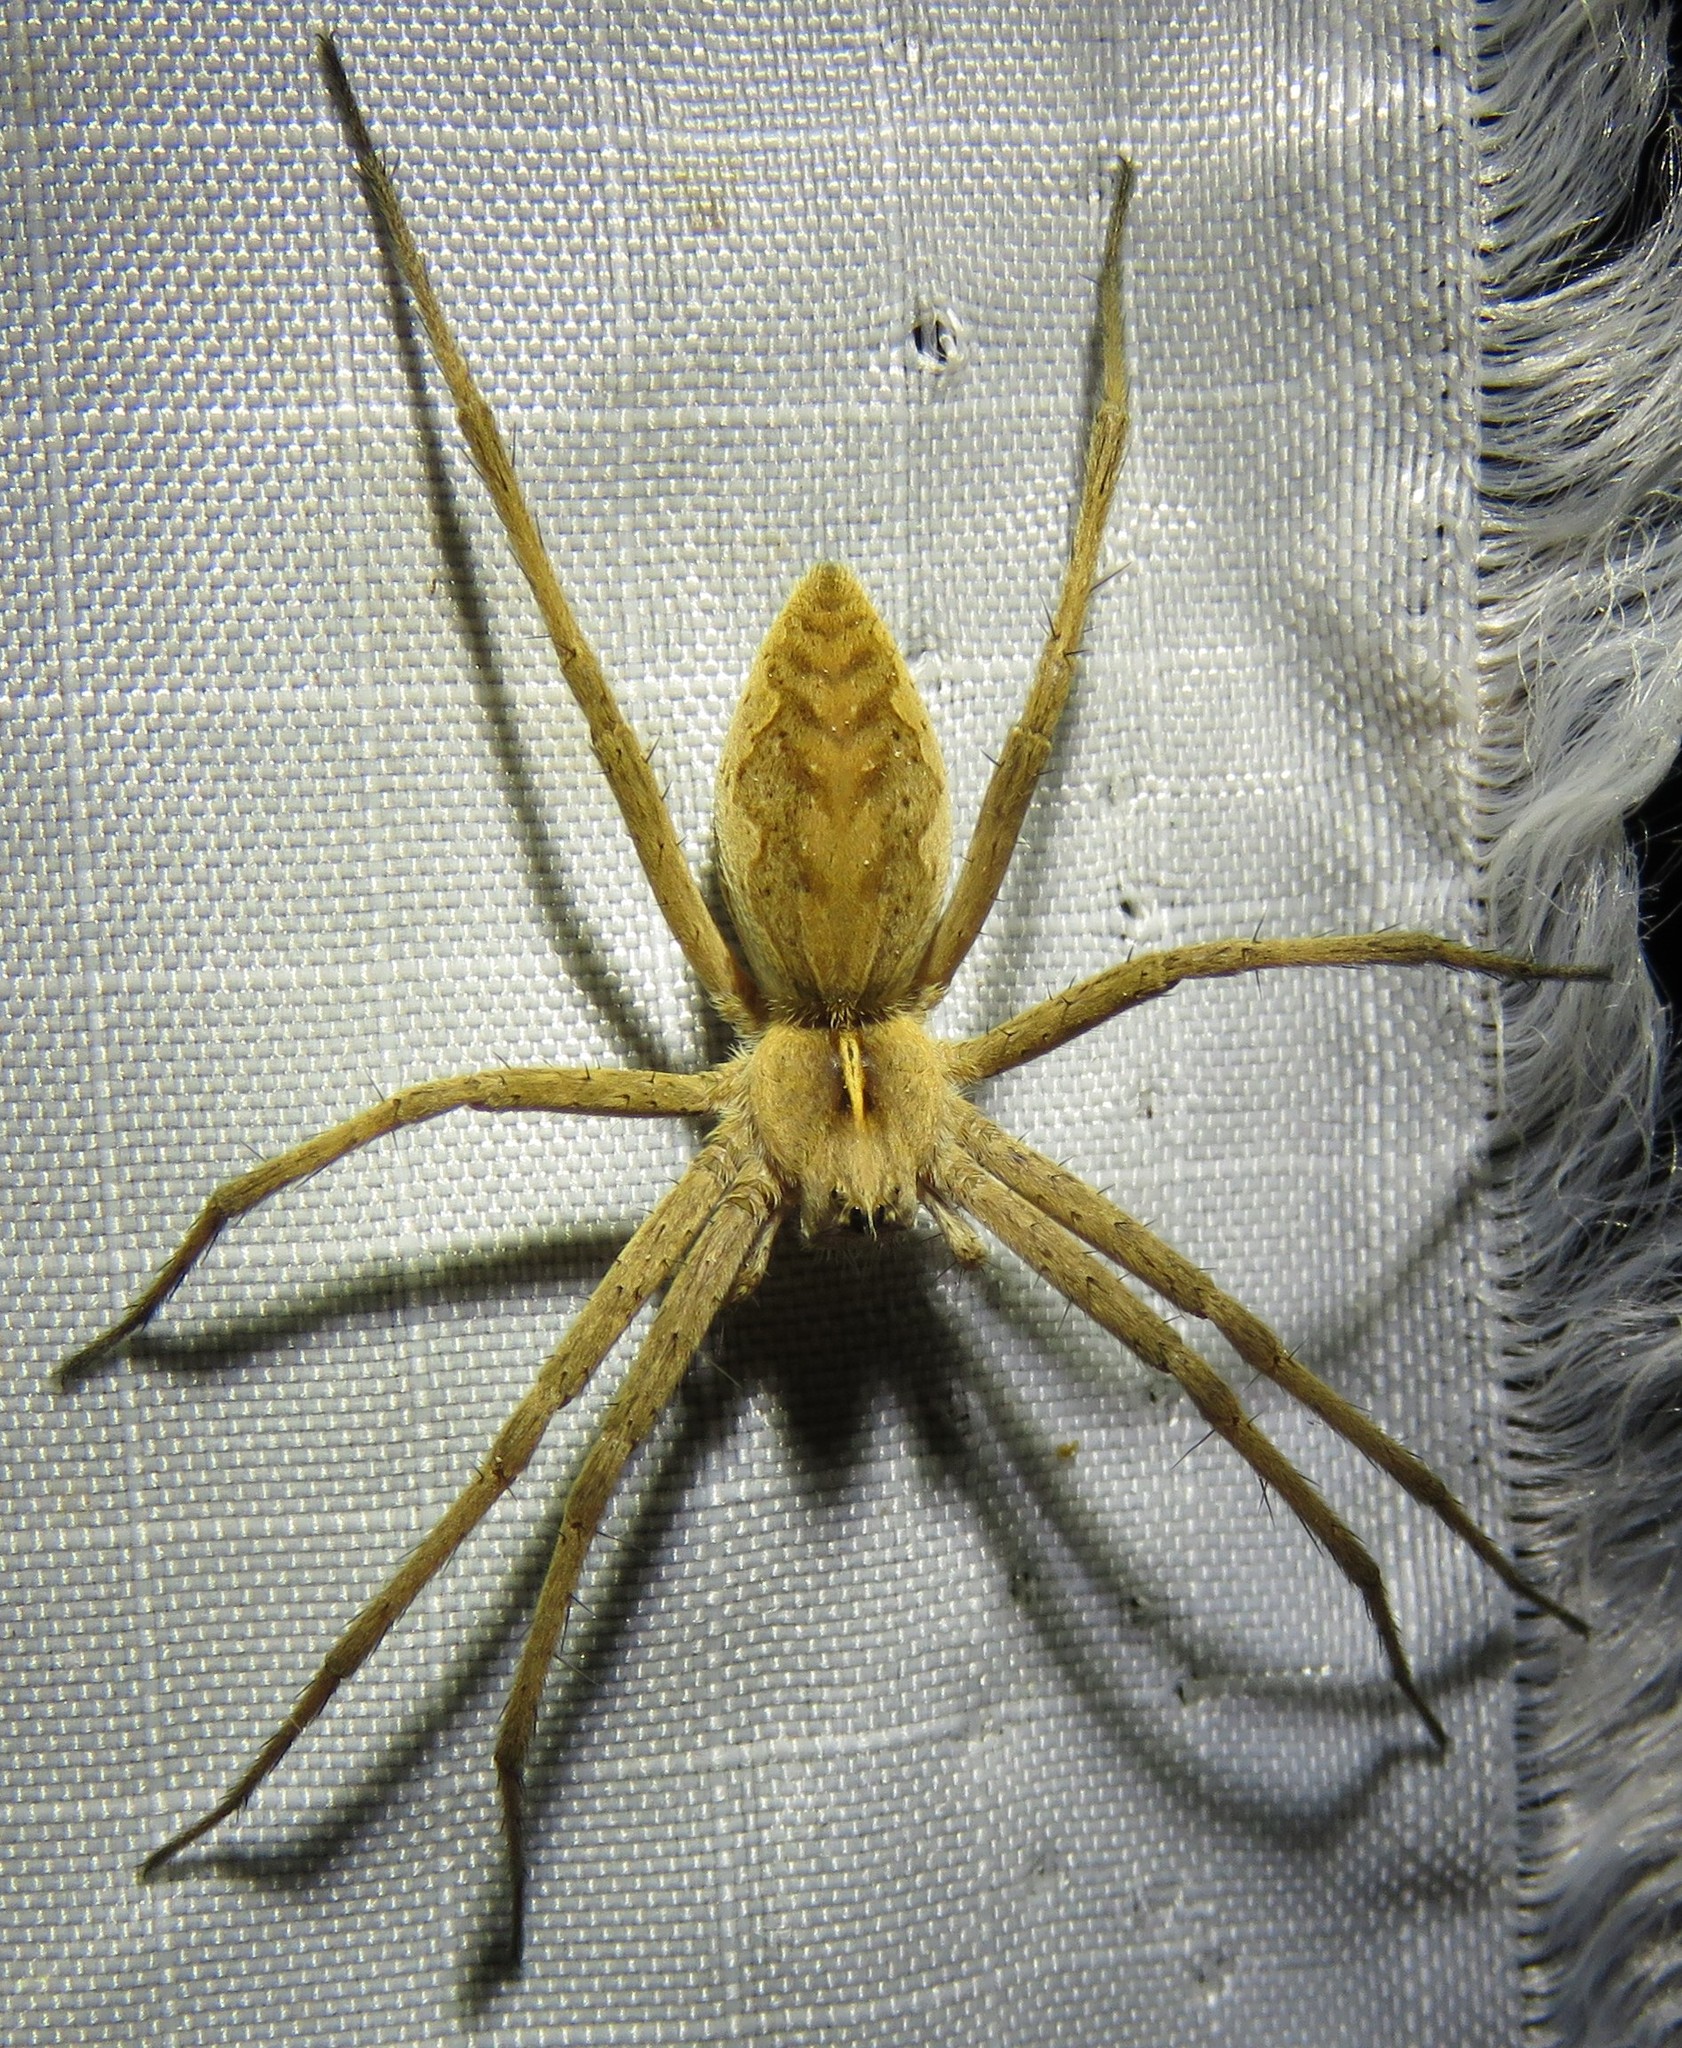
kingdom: Animalia
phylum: Arthropoda
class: Arachnida
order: Araneae
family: Pisauridae
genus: Pisaura
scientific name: Pisaura mirabilis
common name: Tent spider
